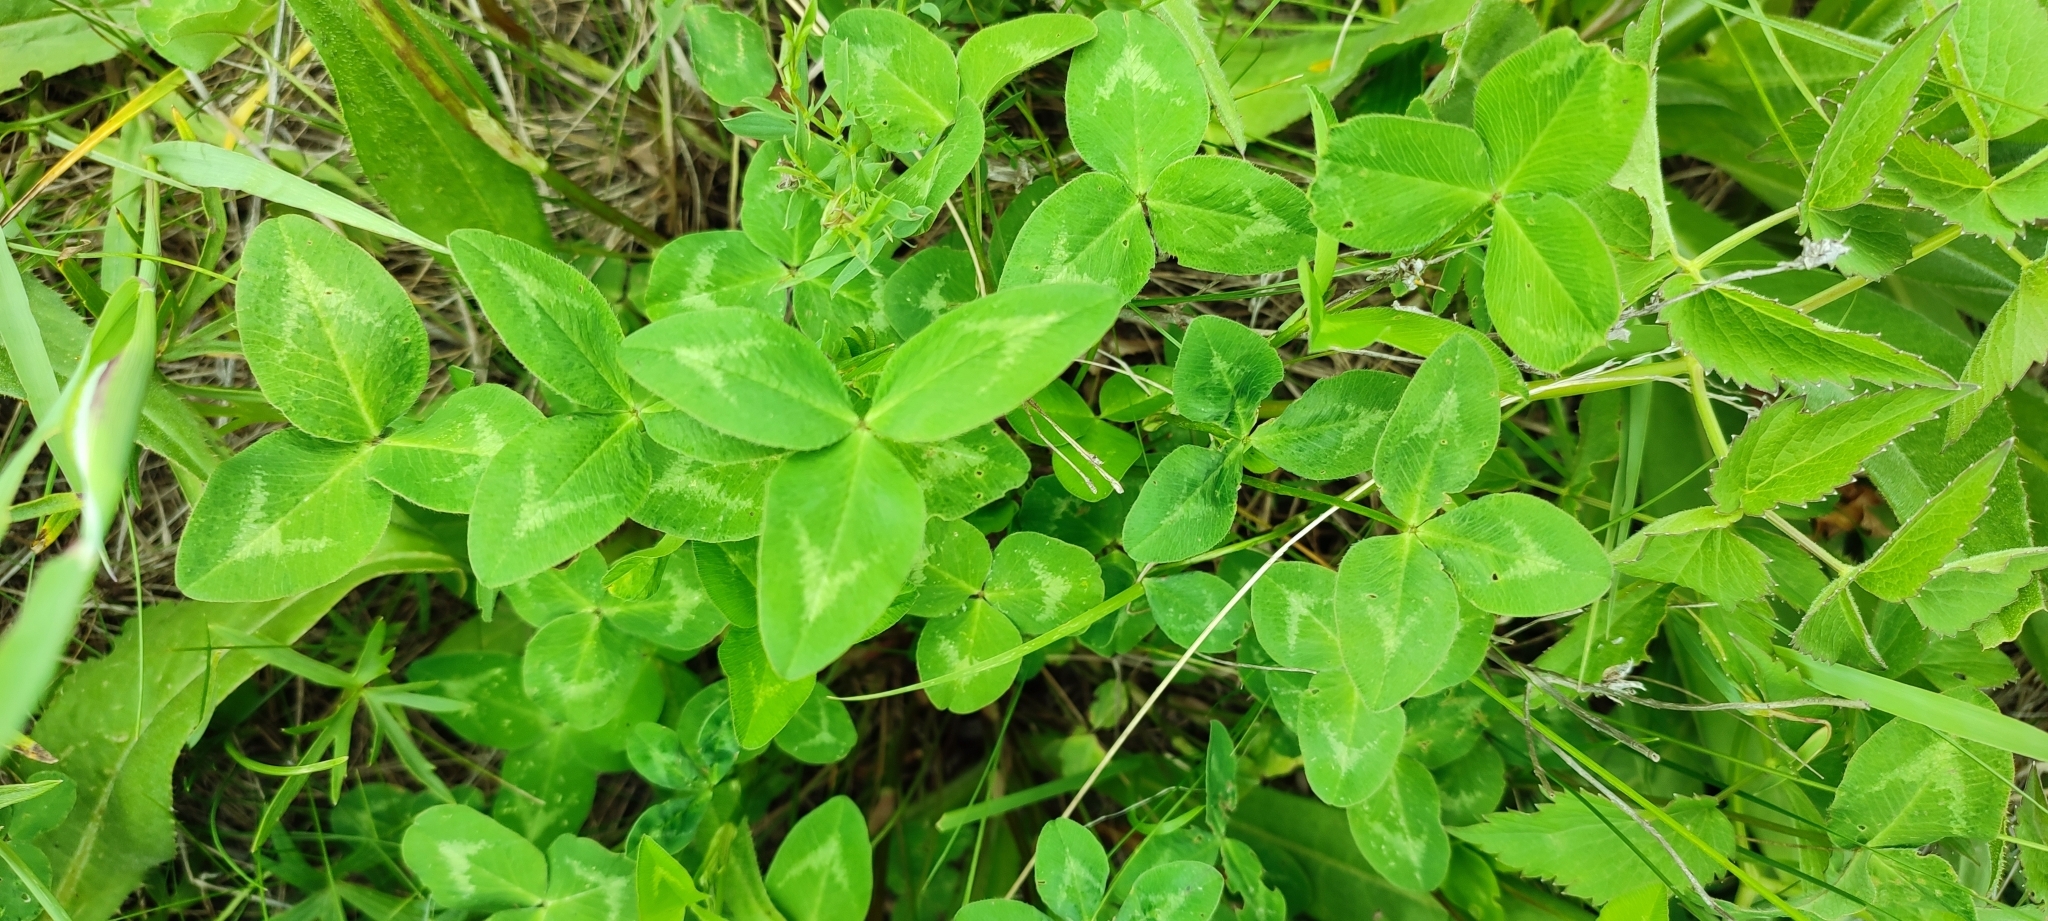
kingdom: Plantae
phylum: Tracheophyta
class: Magnoliopsida
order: Fabales
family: Fabaceae
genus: Trifolium
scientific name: Trifolium pratense
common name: Red clover
